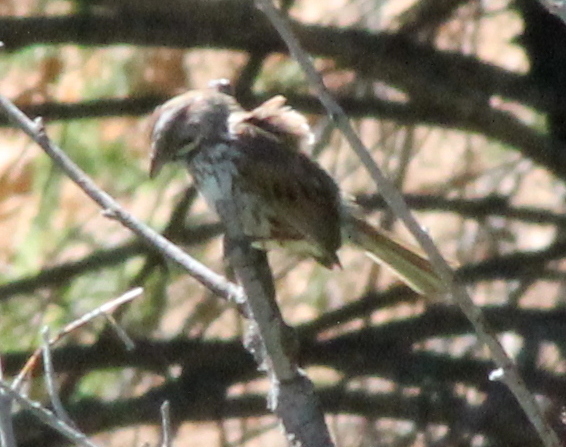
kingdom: Animalia
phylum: Chordata
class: Aves
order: Passeriformes
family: Passerellidae
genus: Melospiza
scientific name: Melospiza melodia
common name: Song sparrow
